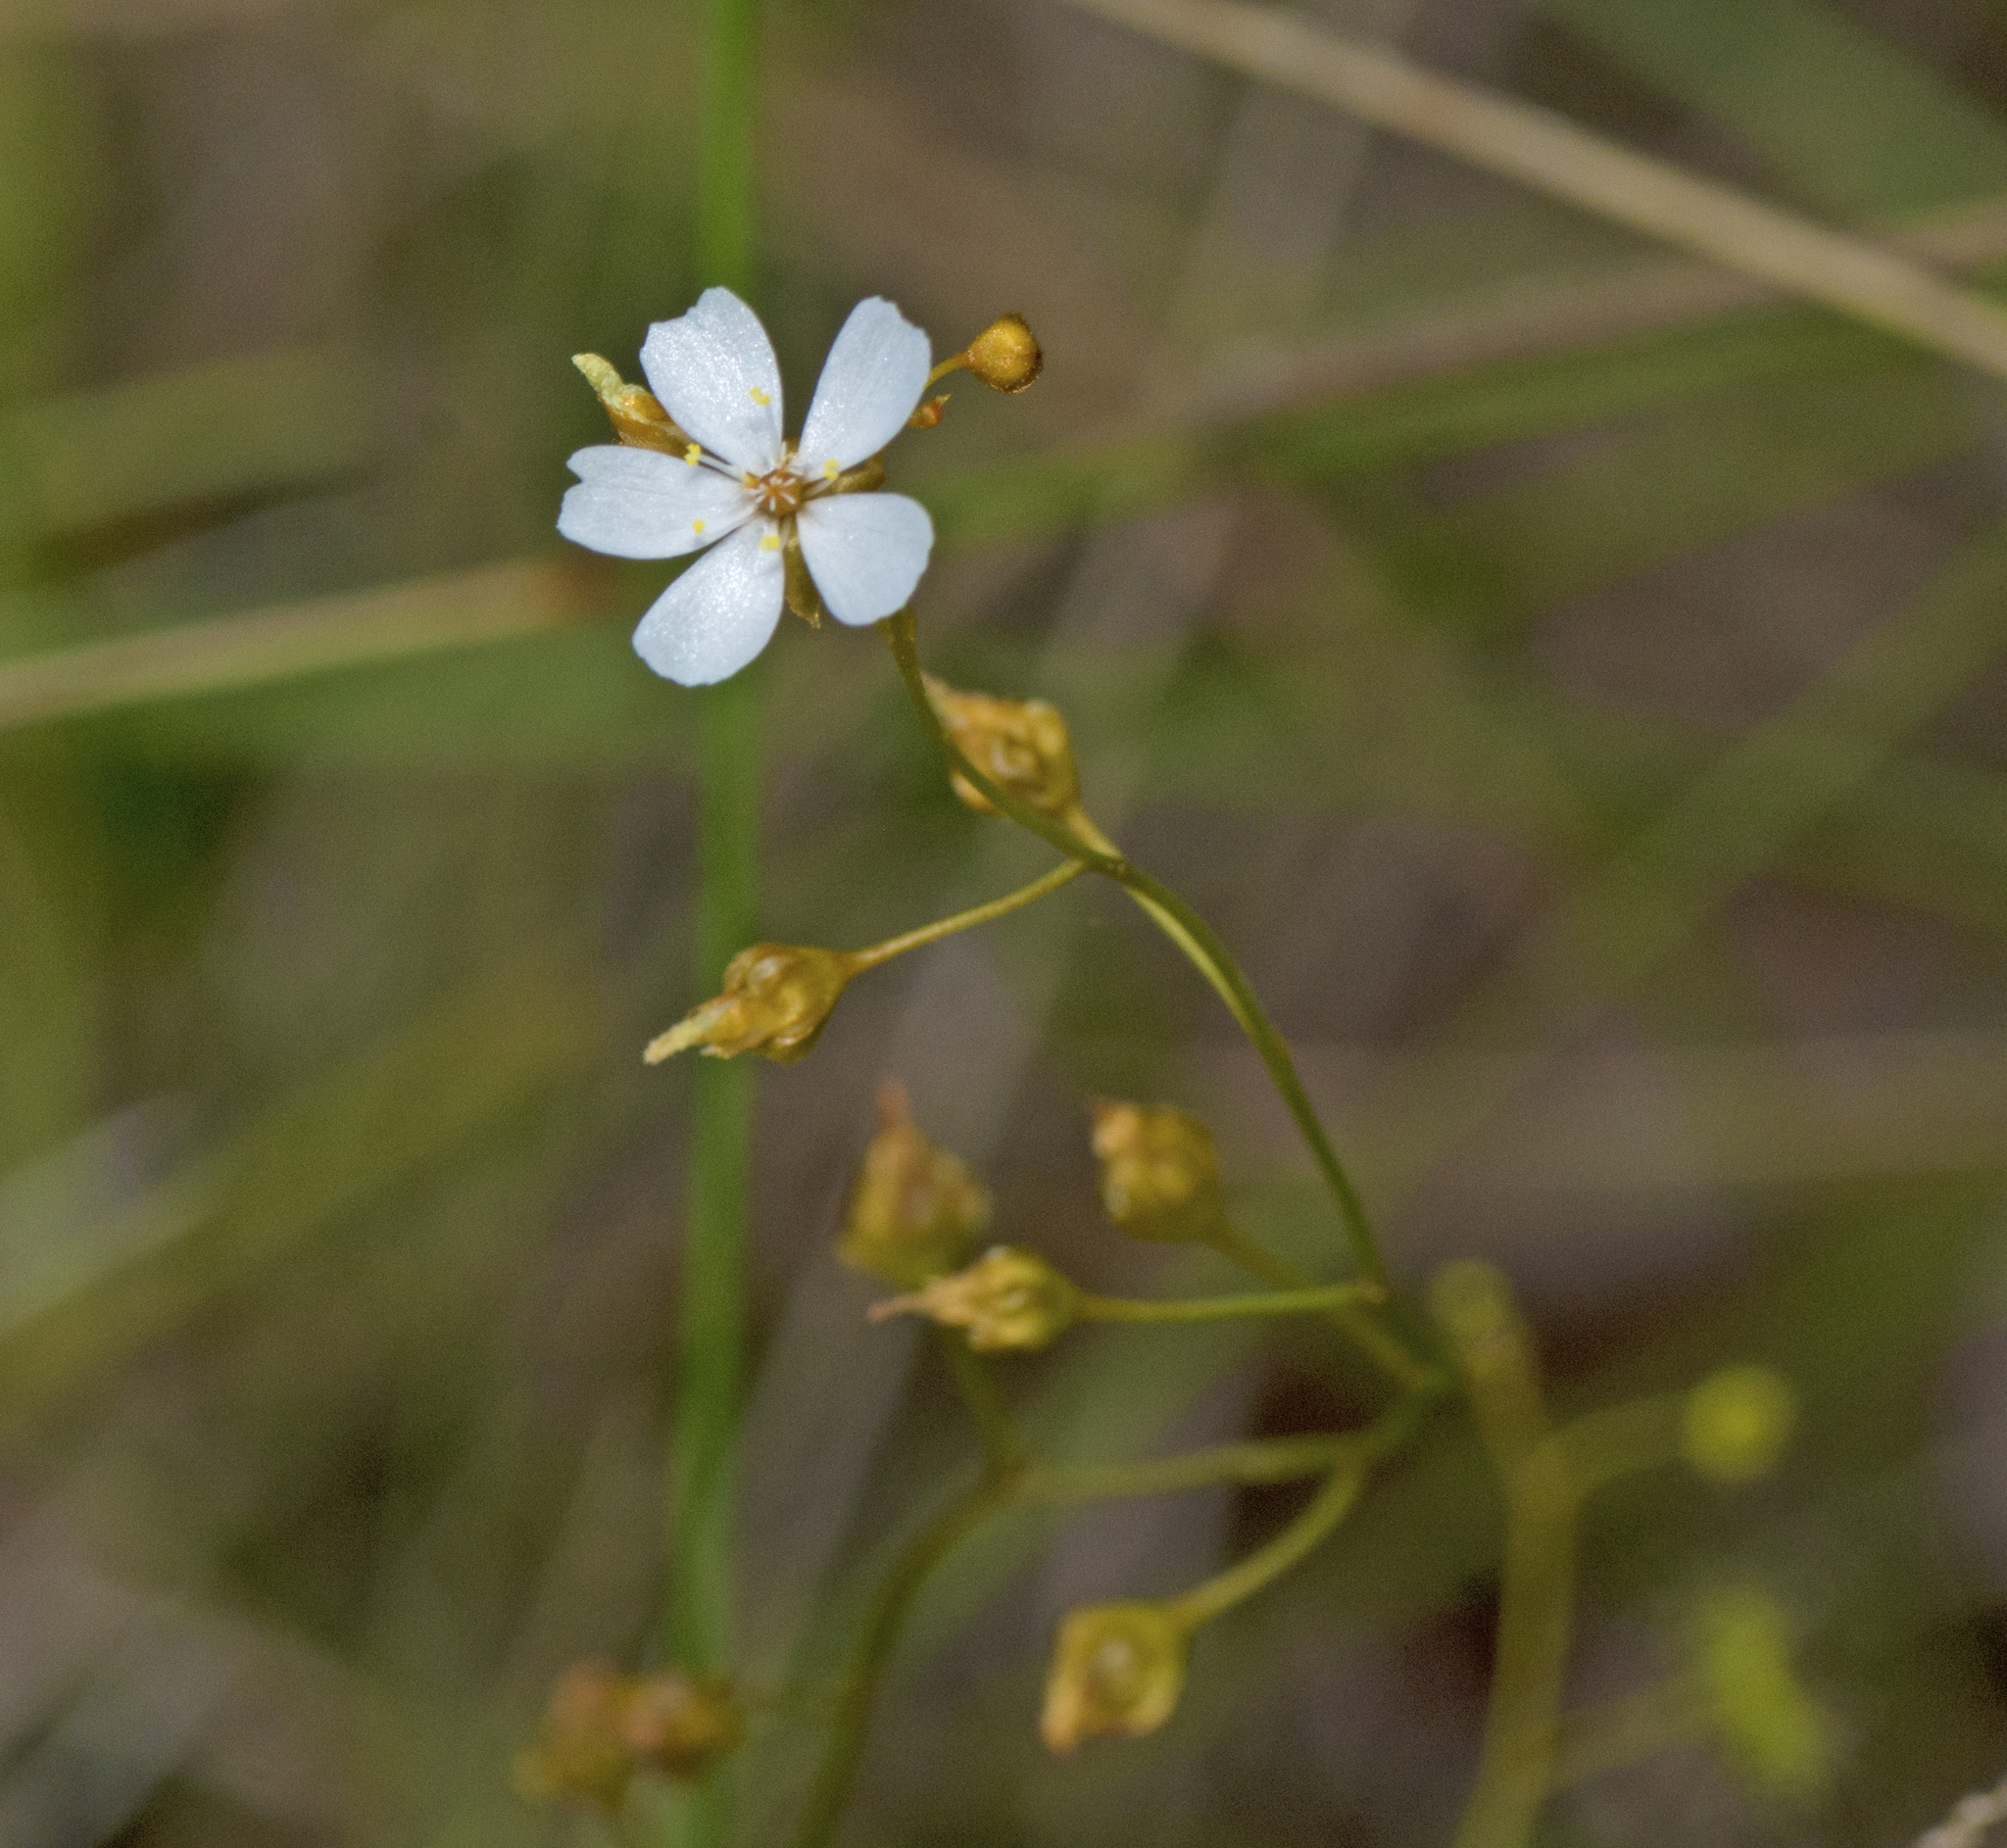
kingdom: Plantae
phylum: Tracheophyta
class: Magnoliopsida
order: Caryophyllales
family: Droseraceae
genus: Drosera
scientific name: Drosera peltata
